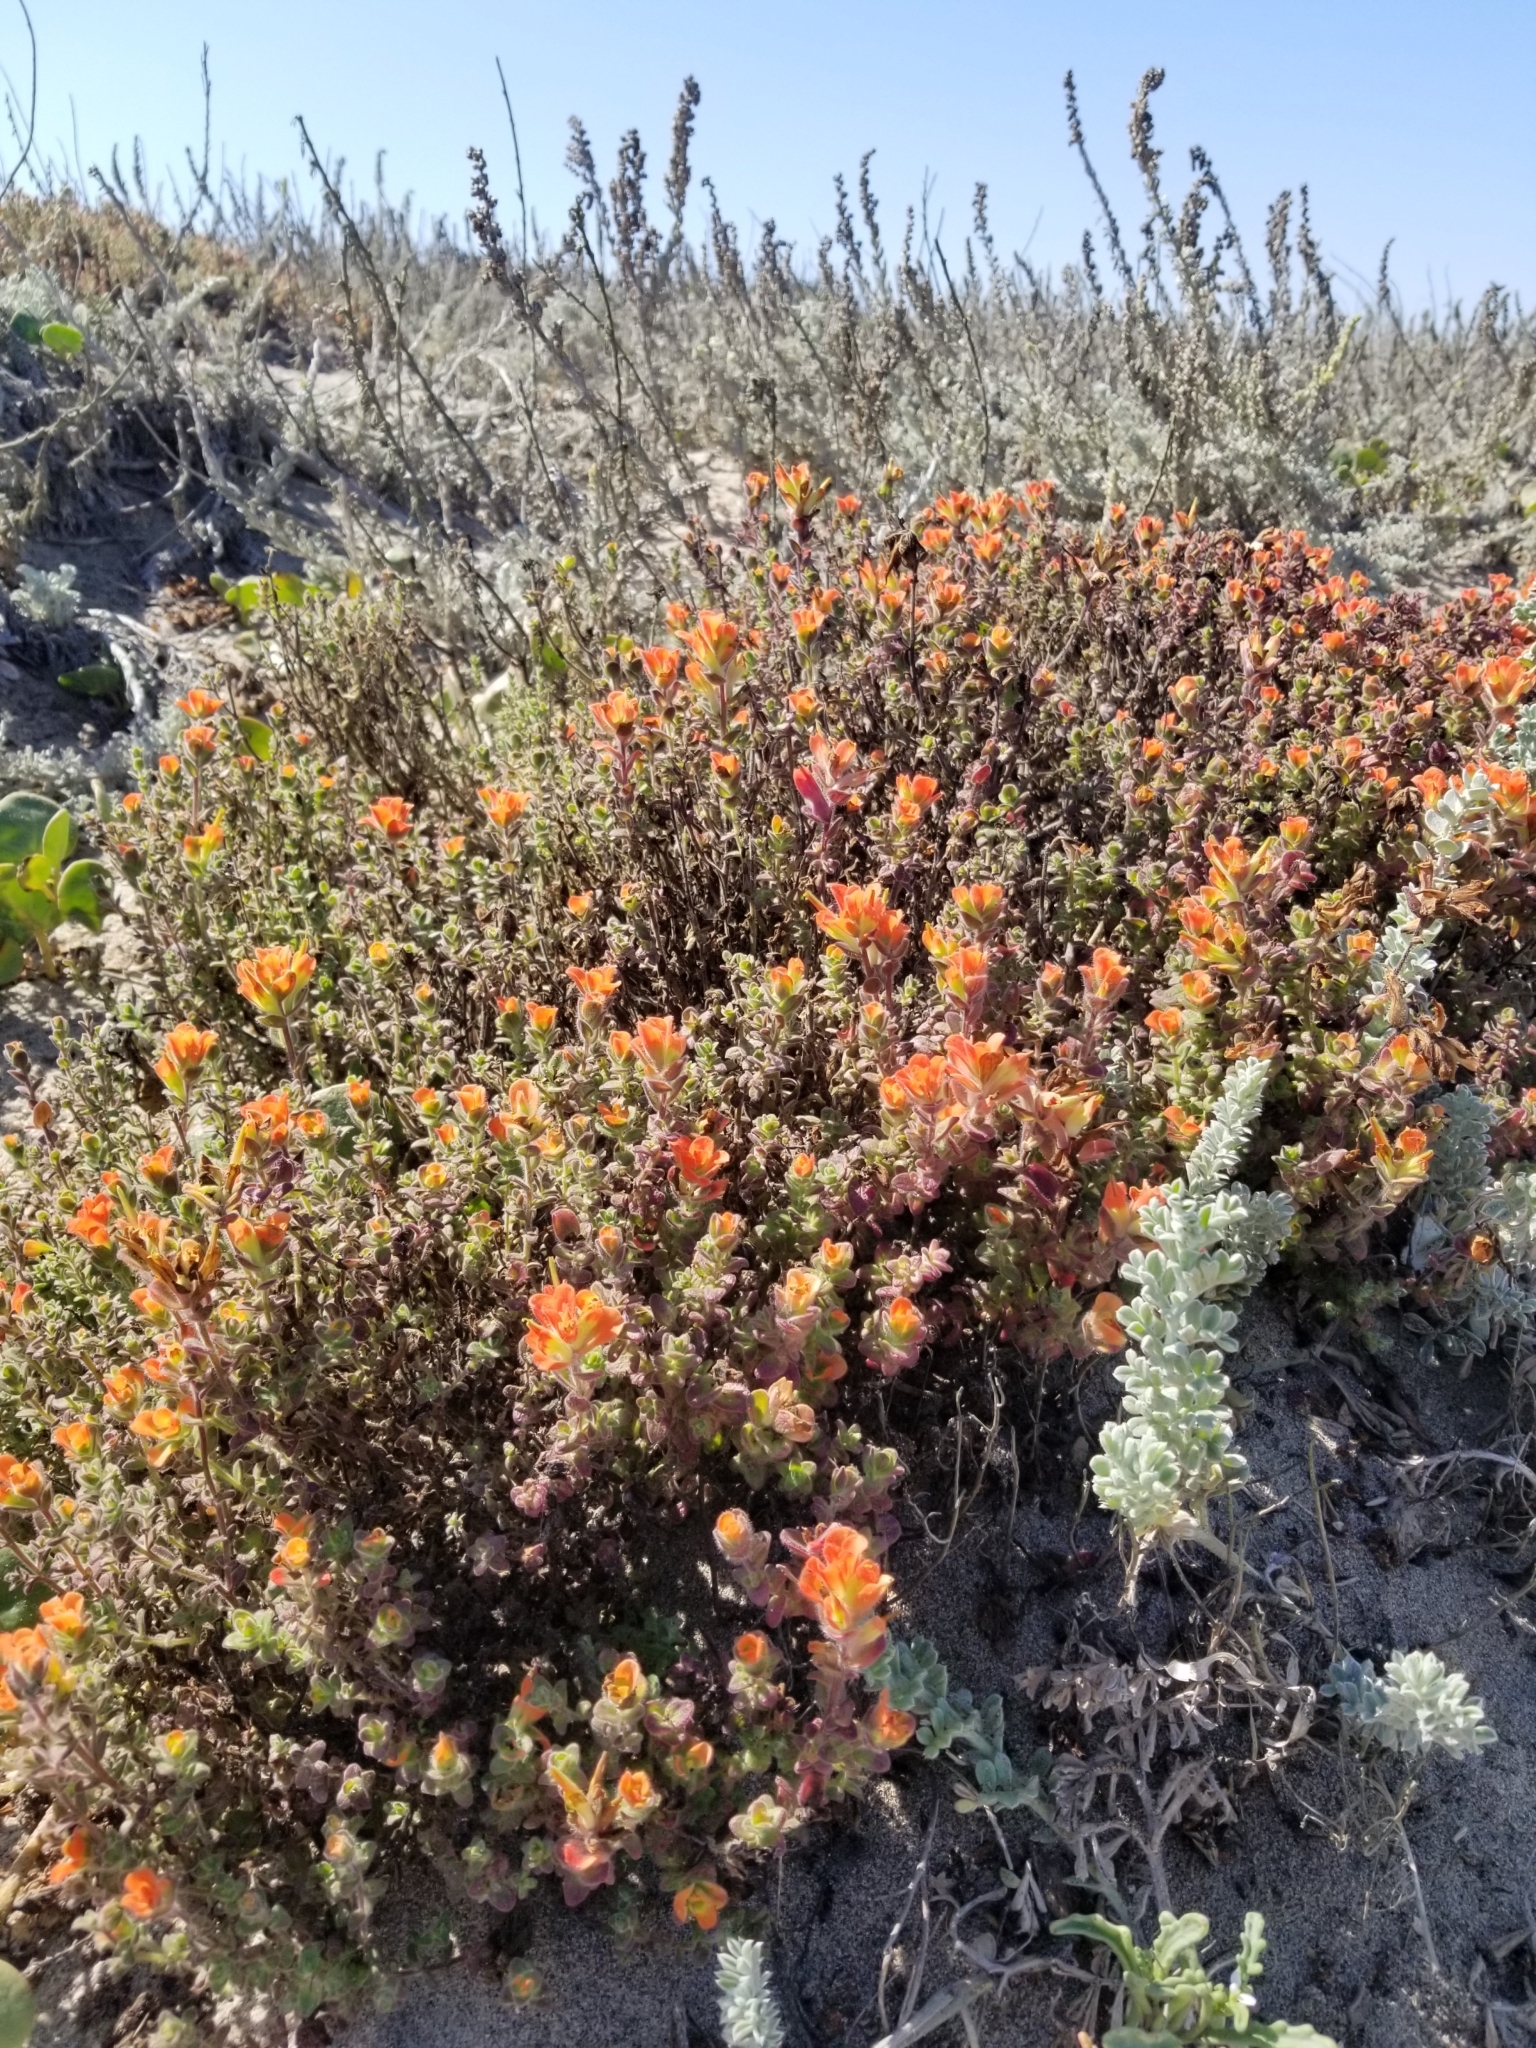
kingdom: Plantae
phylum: Tracheophyta
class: Magnoliopsida
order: Lamiales
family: Orobanchaceae
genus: Castilleja
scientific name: Castilleja latifolia
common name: Monterey indian paintbrush
